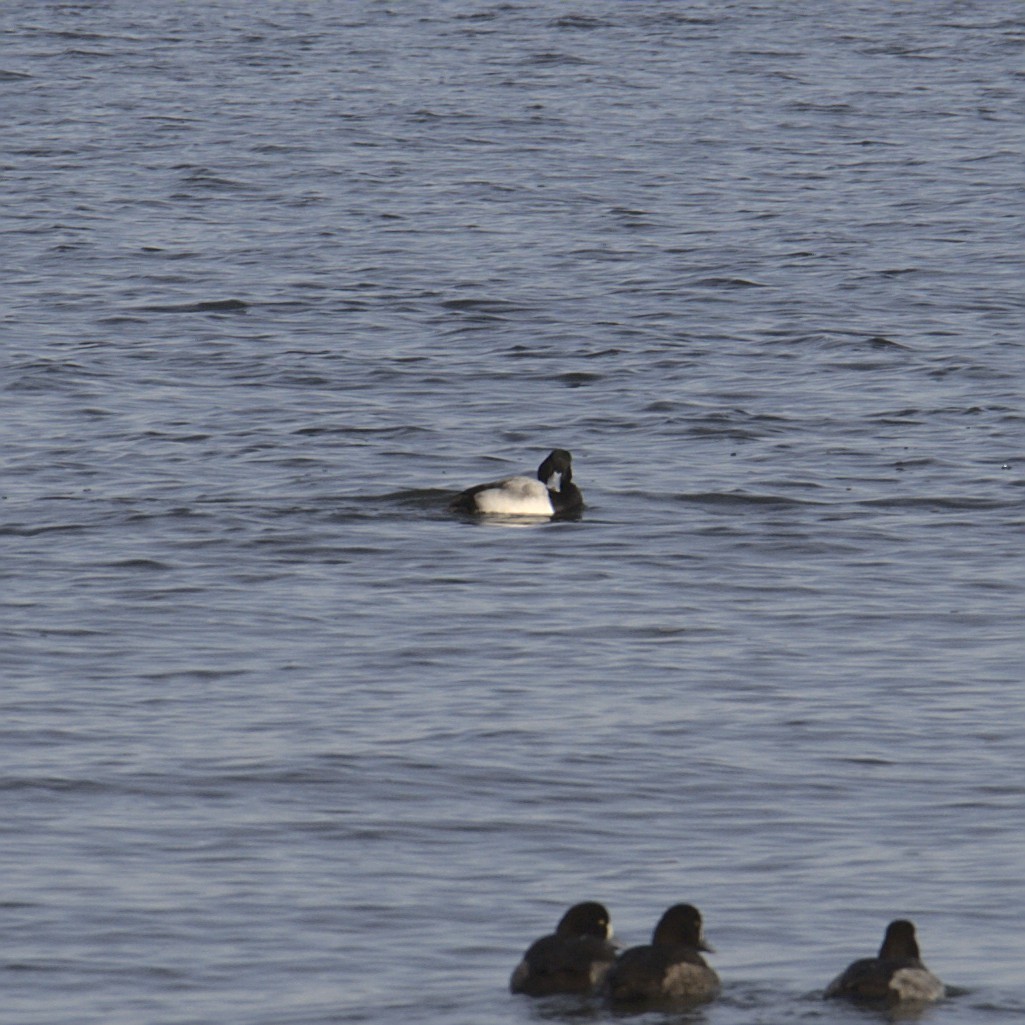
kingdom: Animalia
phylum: Chordata
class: Aves
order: Anseriformes
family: Anatidae
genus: Aythya
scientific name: Aythya affinis
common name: Lesser scaup
